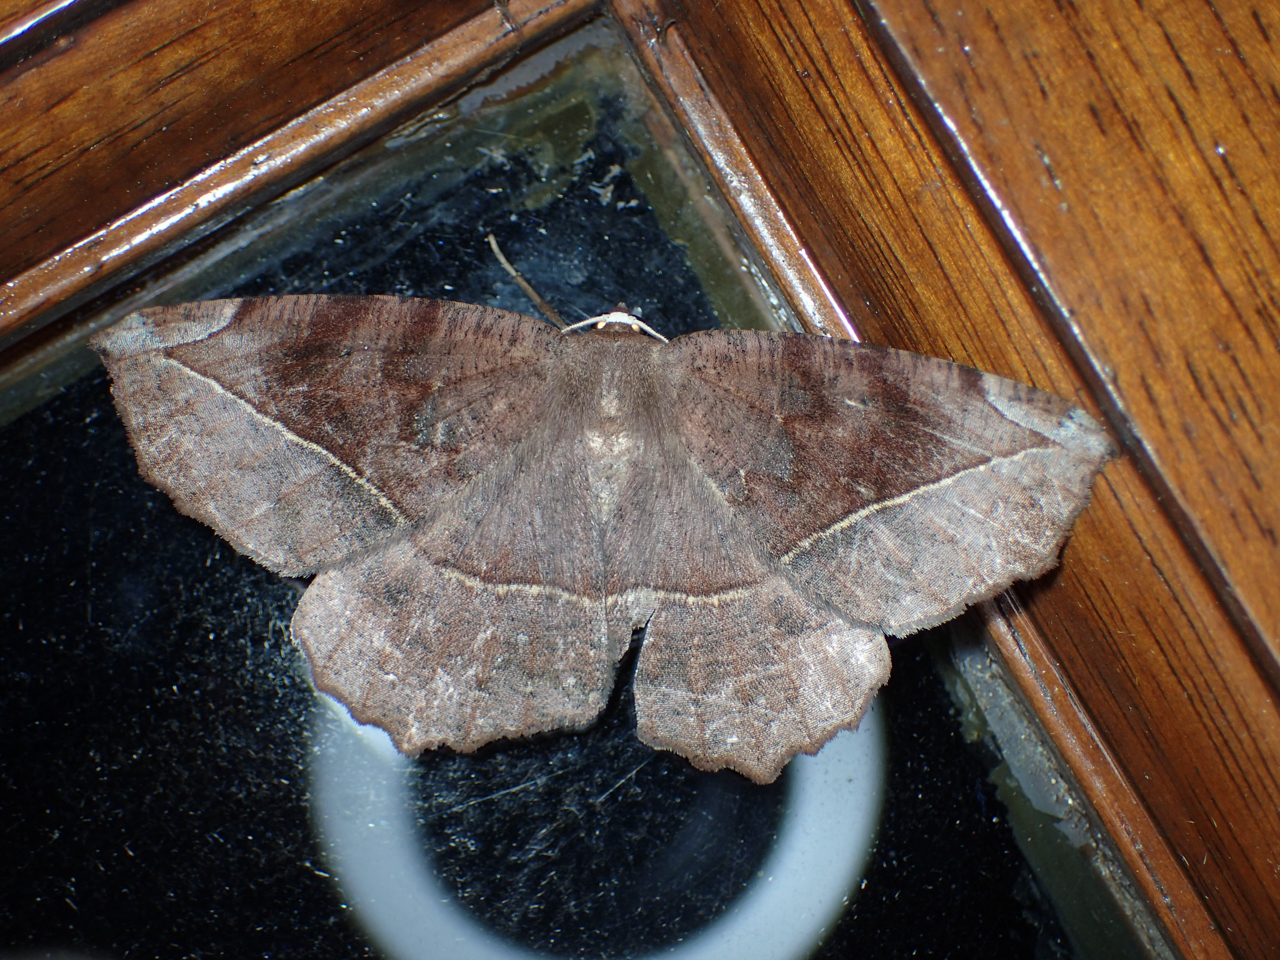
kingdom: Animalia
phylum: Arthropoda
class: Insecta
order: Lepidoptera
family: Geometridae
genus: Eutrapela
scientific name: Eutrapela clemataria
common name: Curved-toothed geometer
